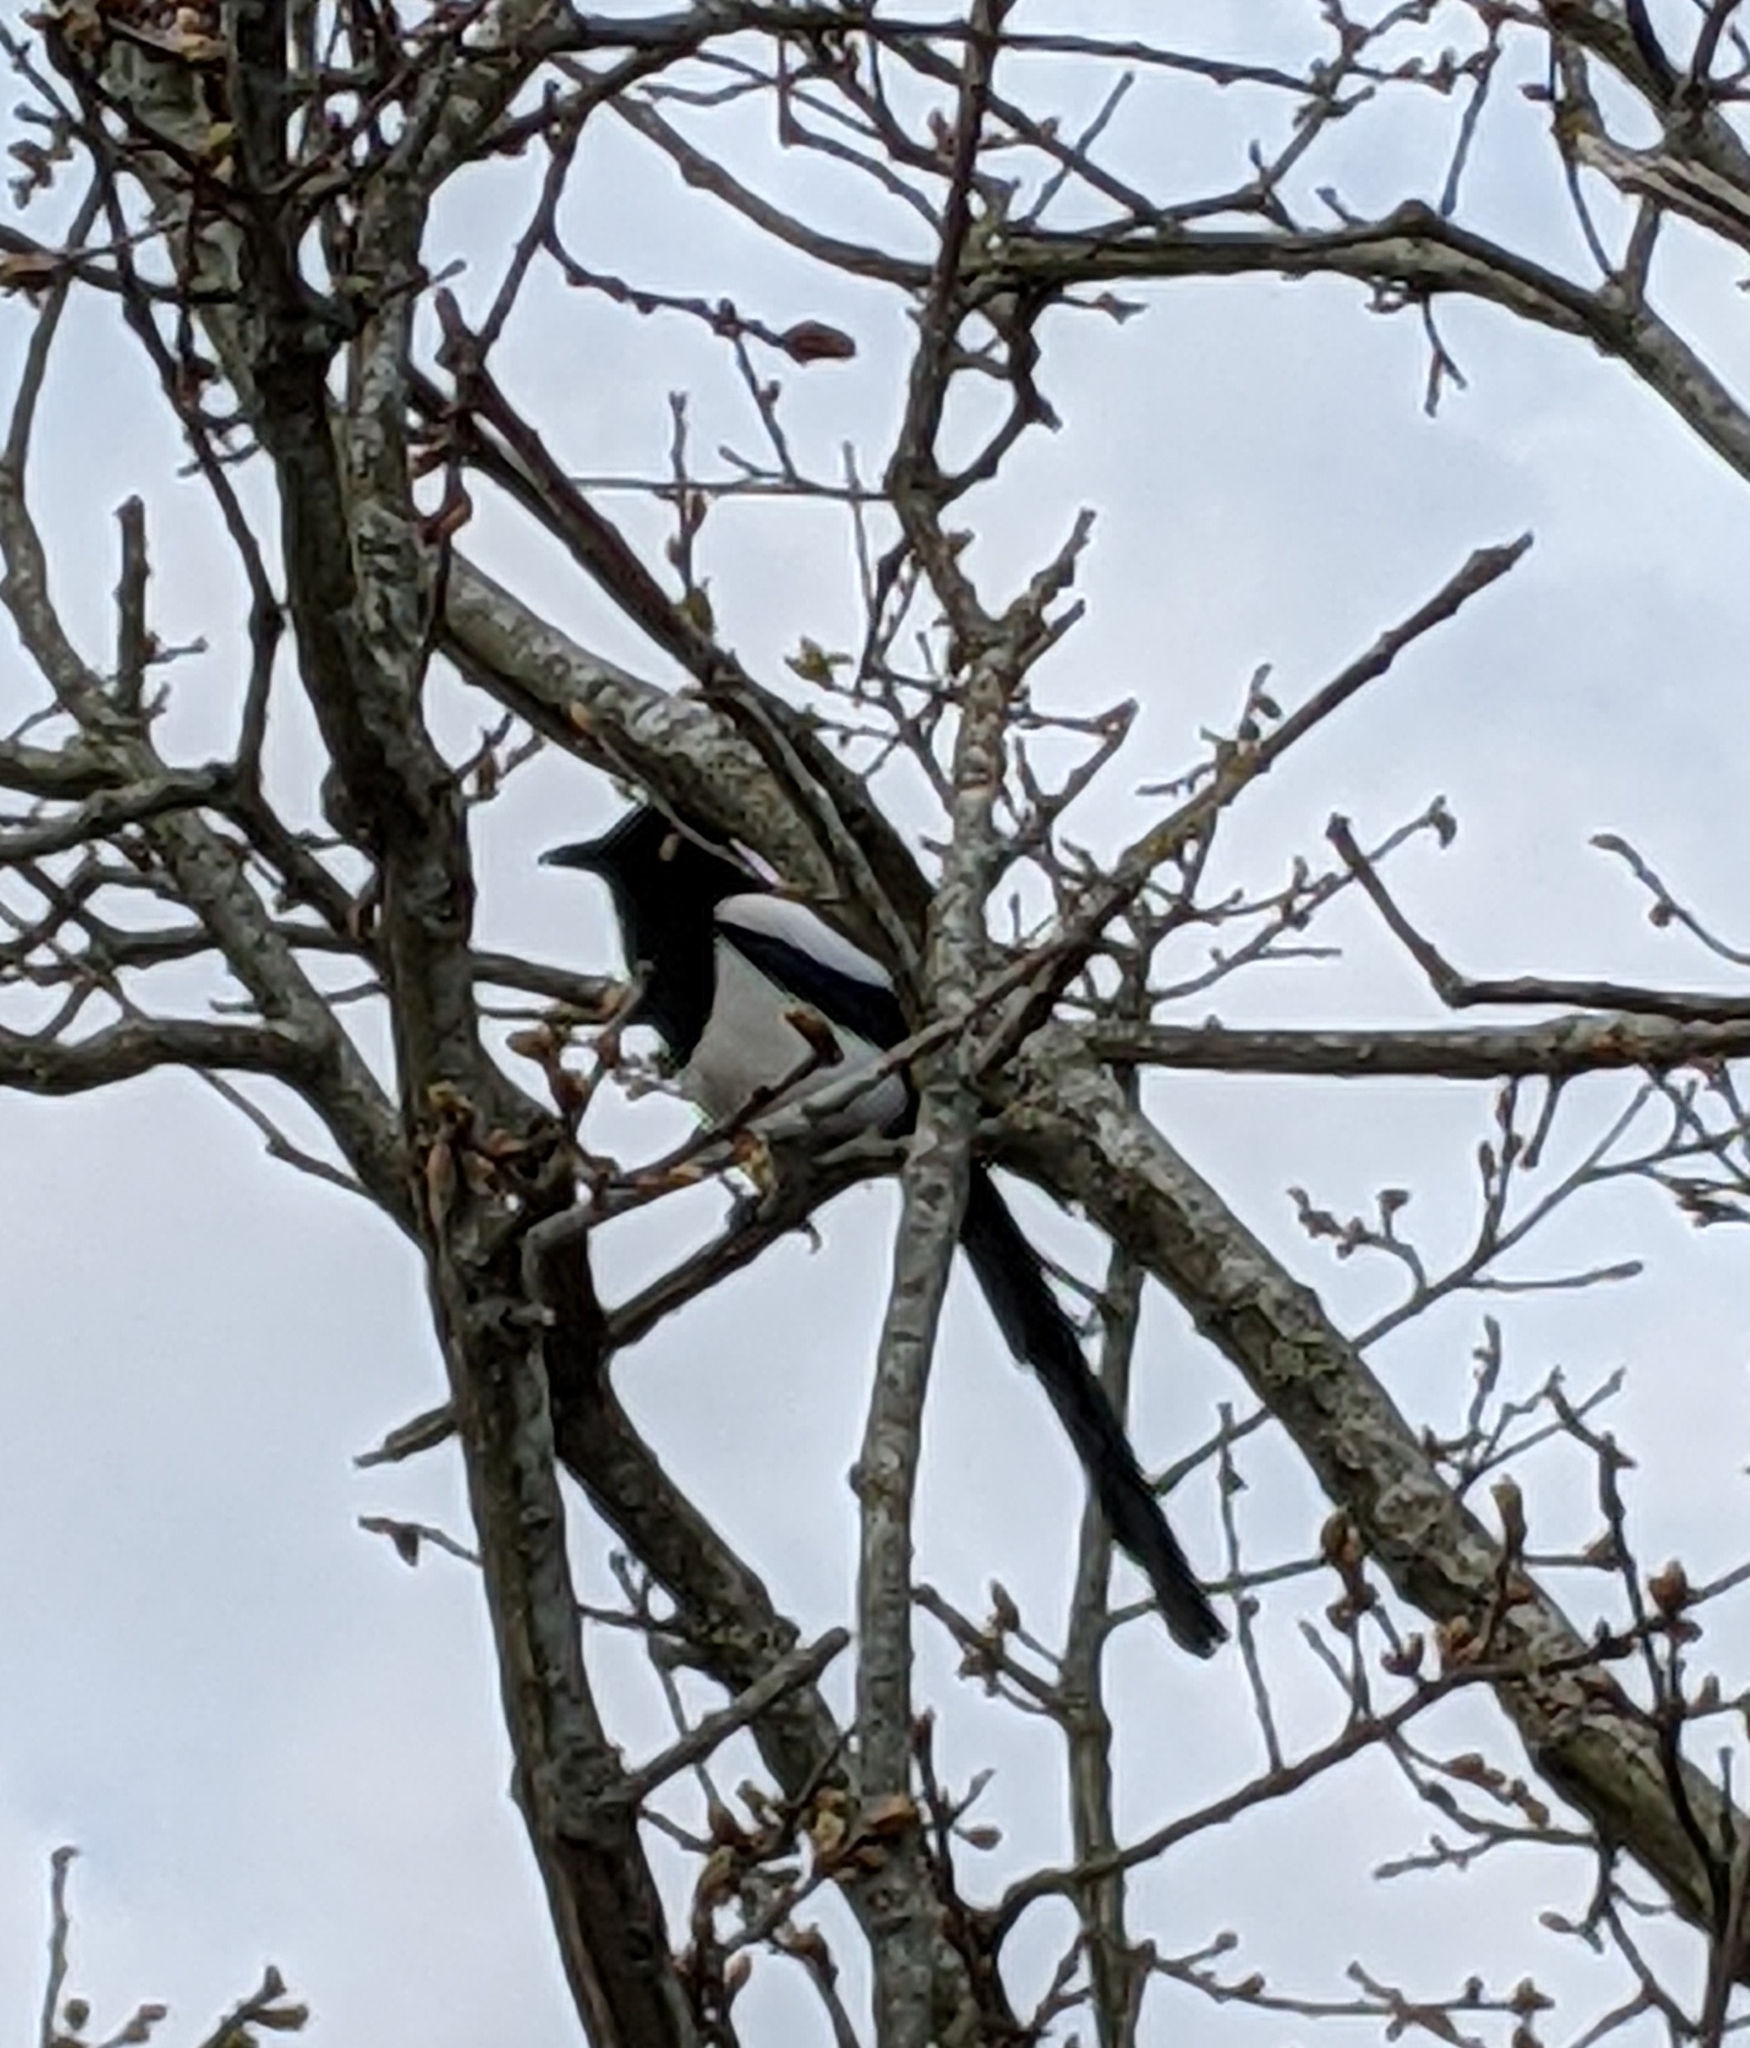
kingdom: Animalia
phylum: Chordata
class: Aves
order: Passeriformes
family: Corvidae
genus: Pica
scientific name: Pica pica
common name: Eurasian magpie
